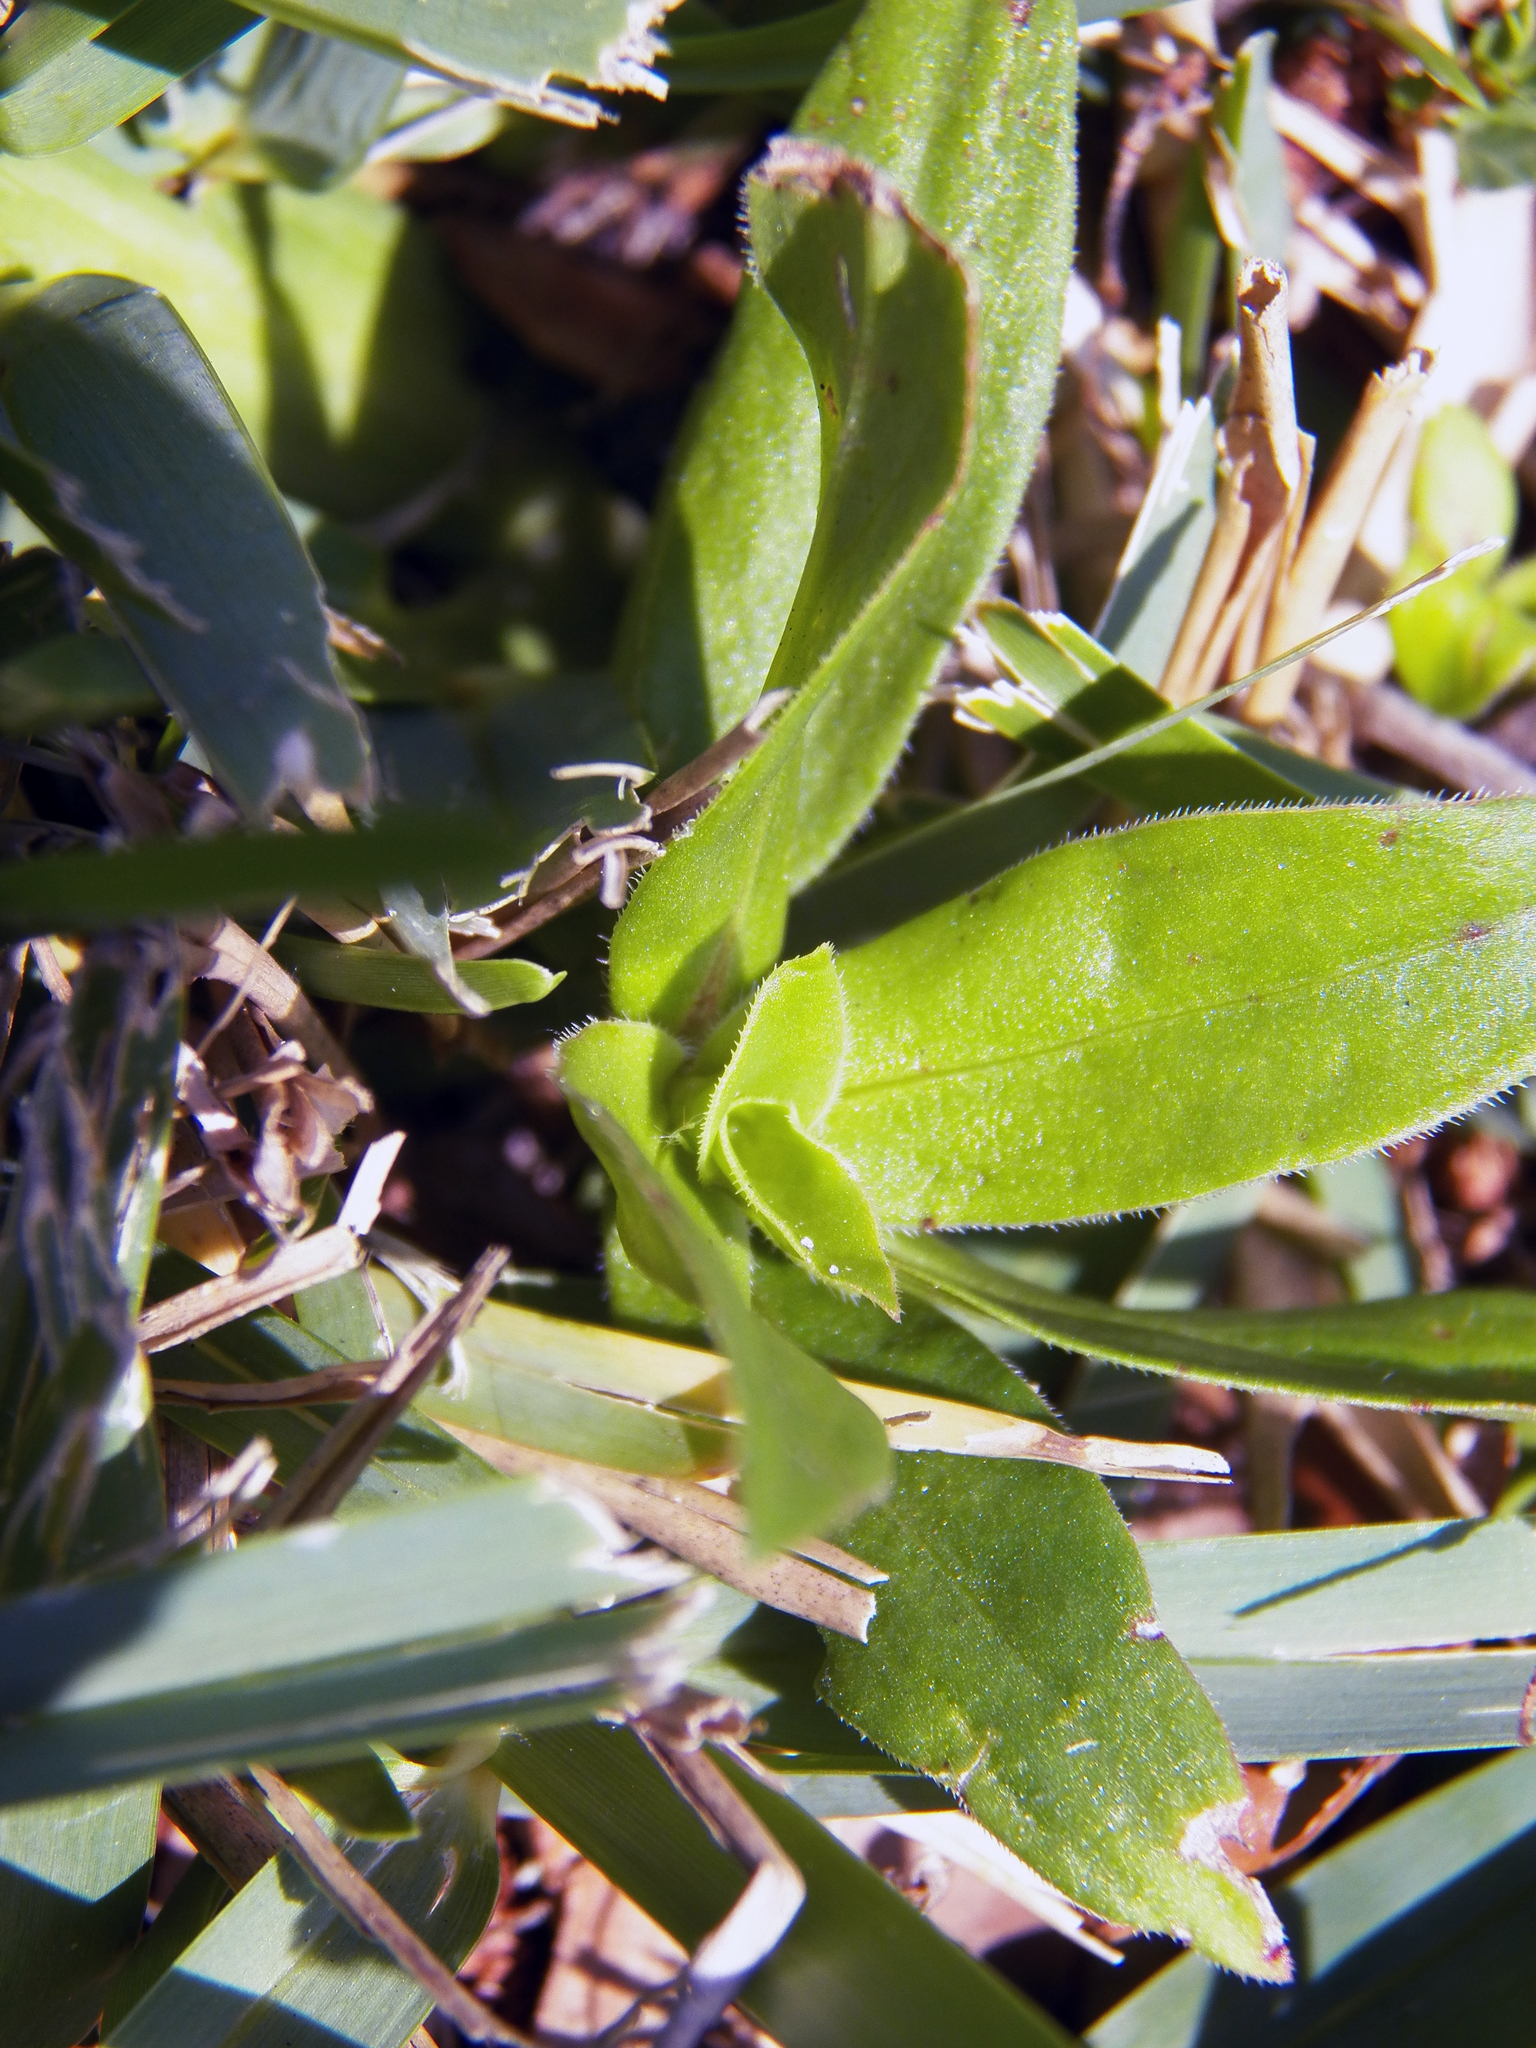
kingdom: Plantae
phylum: Tracheophyta
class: Magnoliopsida
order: Gentianales
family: Rubiaceae
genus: Diodia
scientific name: Diodia virginiana
